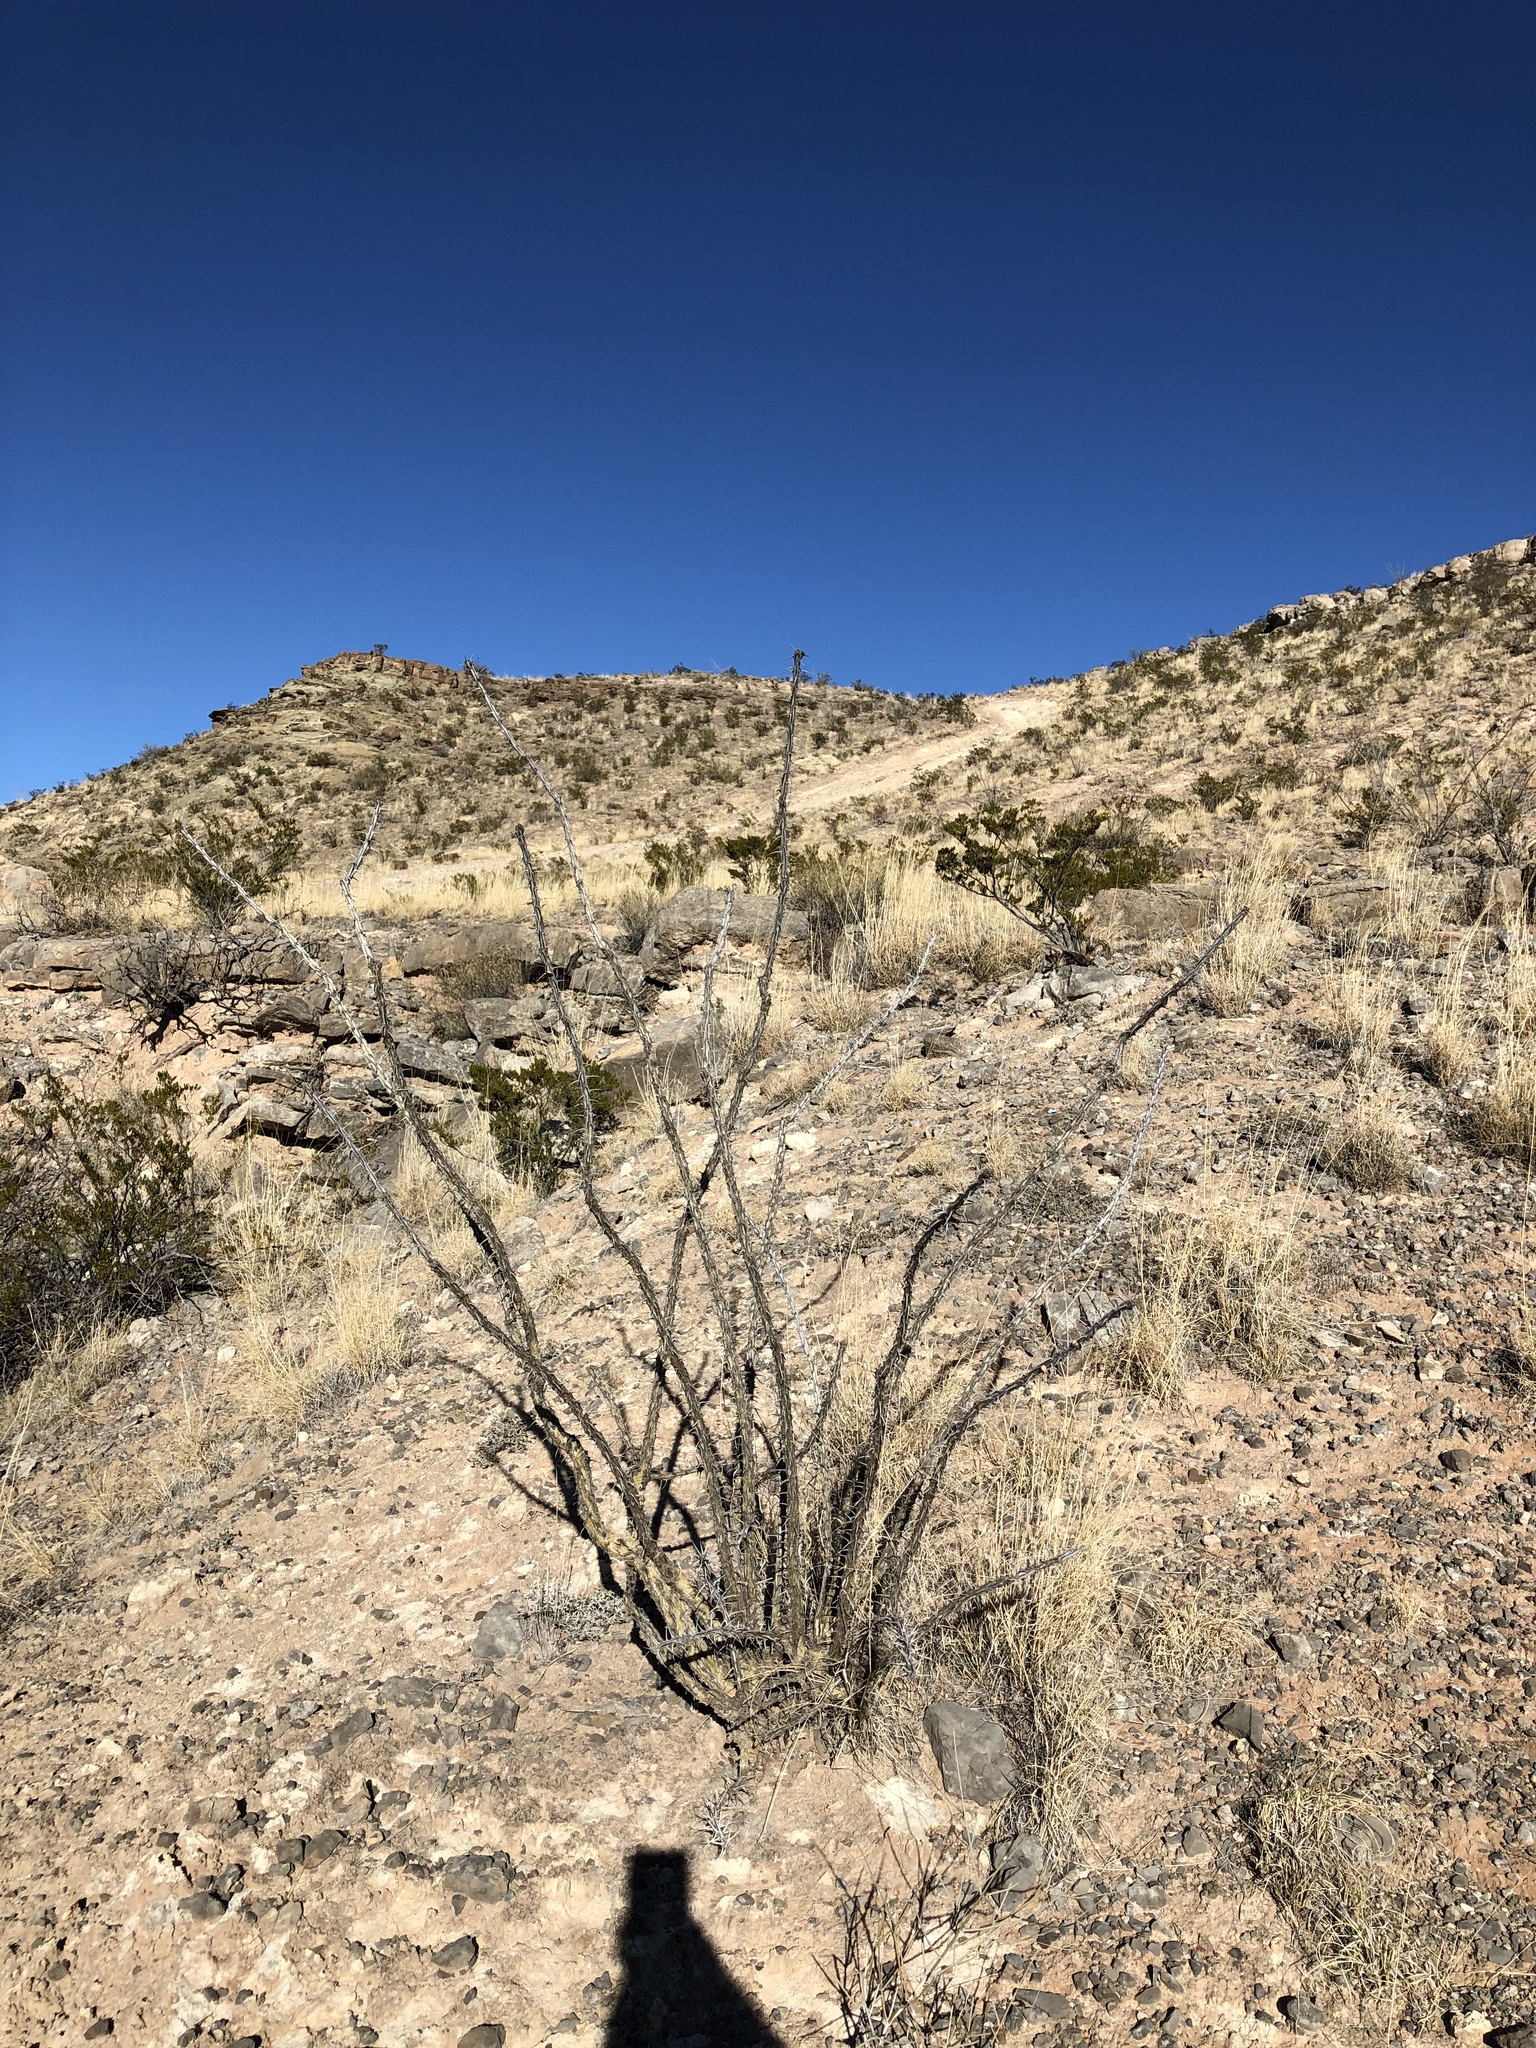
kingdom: Plantae
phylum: Tracheophyta
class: Magnoliopsida
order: Ericales
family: Fouquieriaceae
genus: Fouquieria
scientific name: Fouquieria splendens
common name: Vine-cactus
